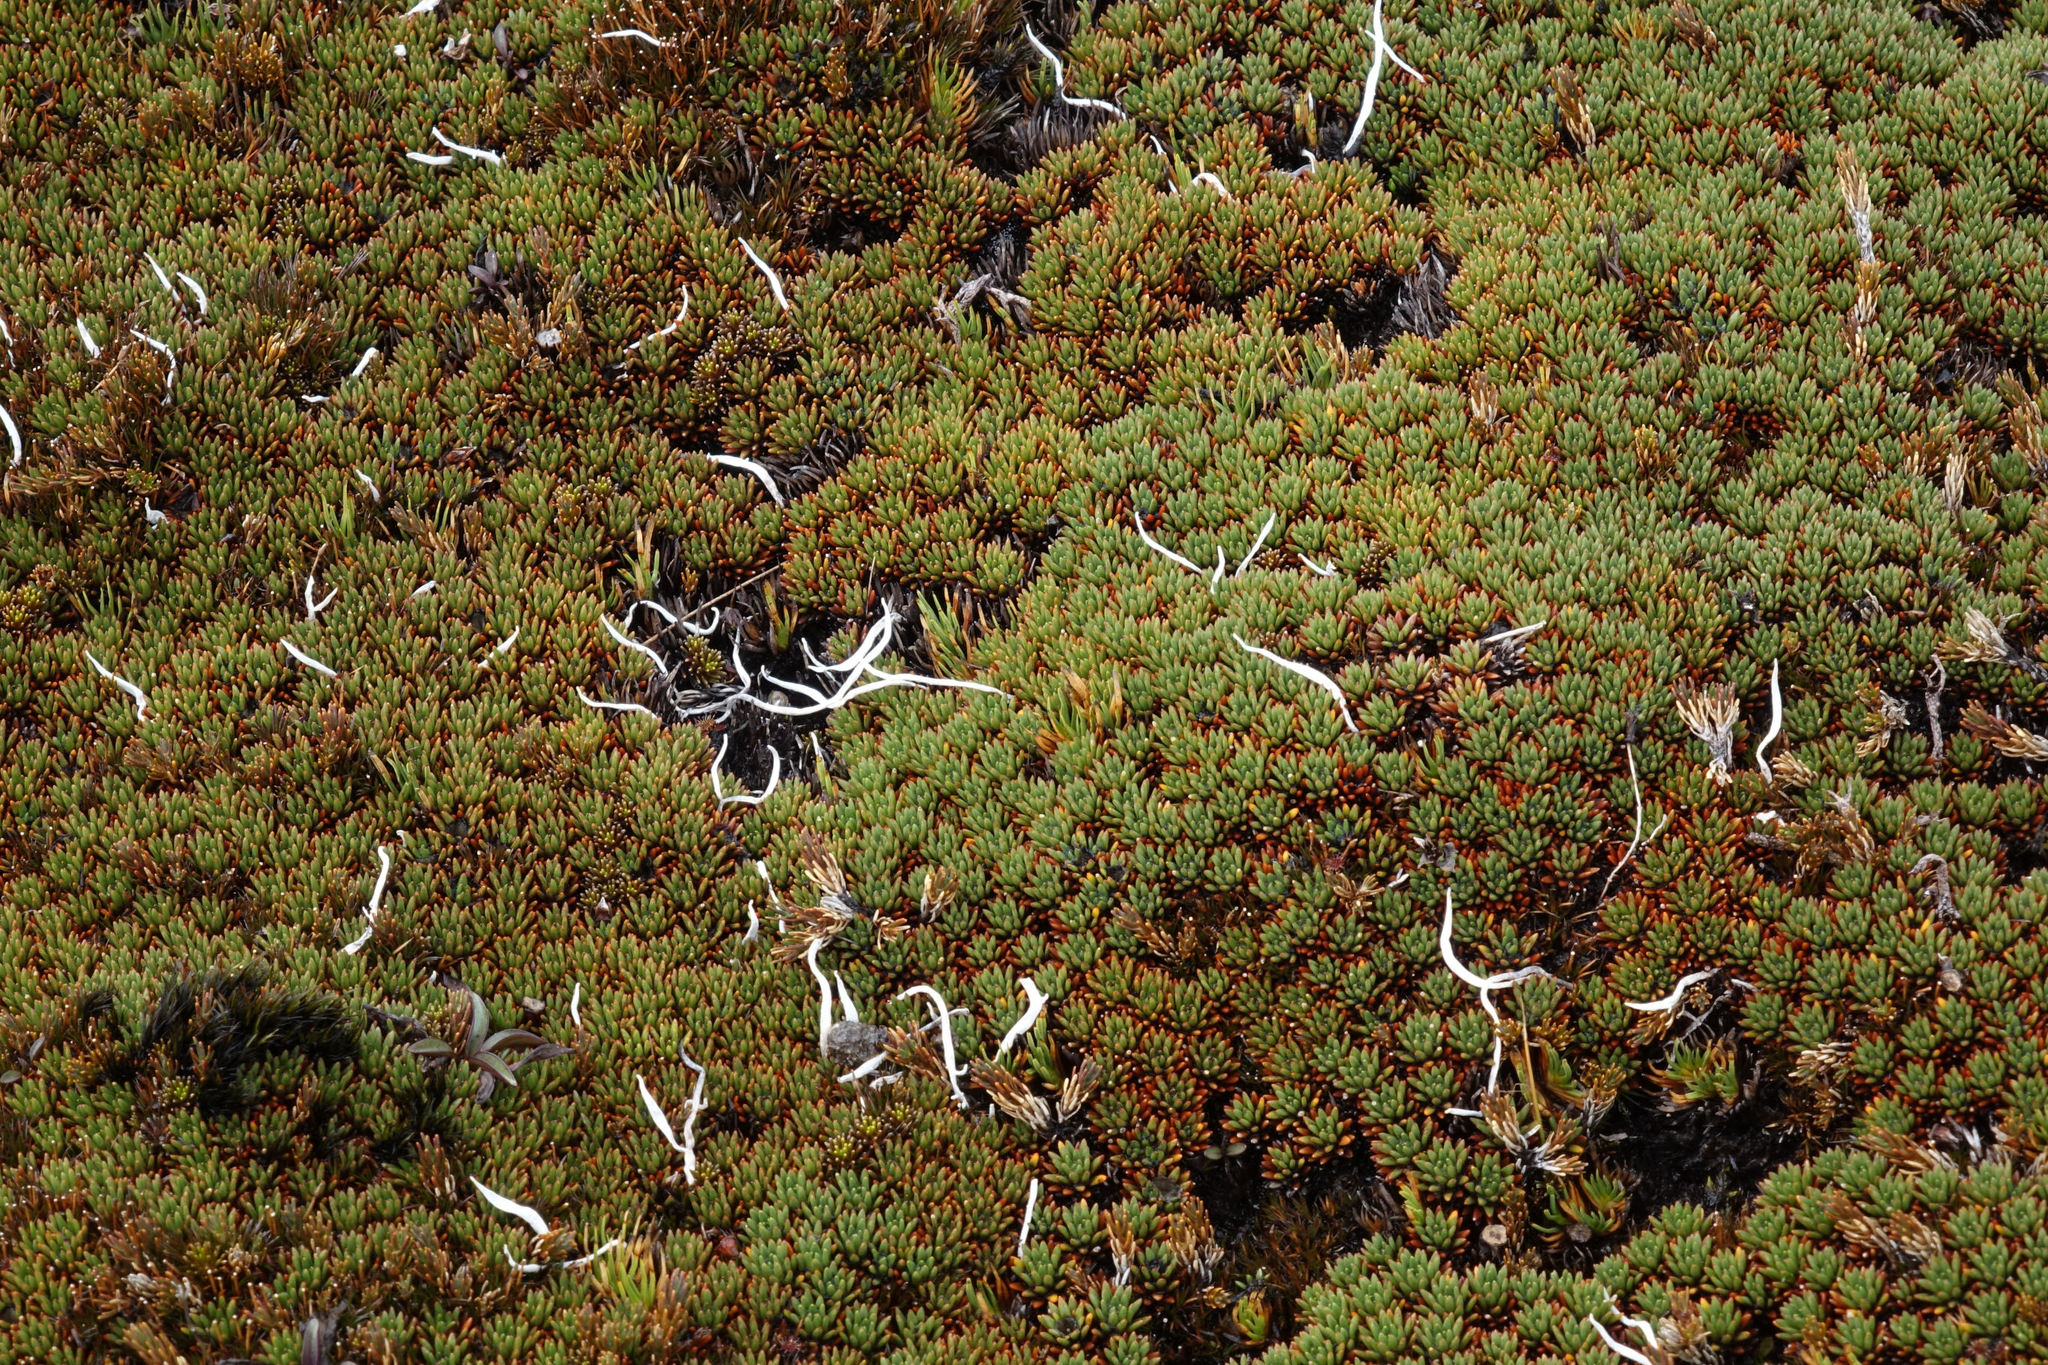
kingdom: Plantae
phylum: Tracheophyta
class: Magnoliopsida
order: Asterales
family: Stylidiaceae
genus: Donatia
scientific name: Donatia novae-zelandiae
